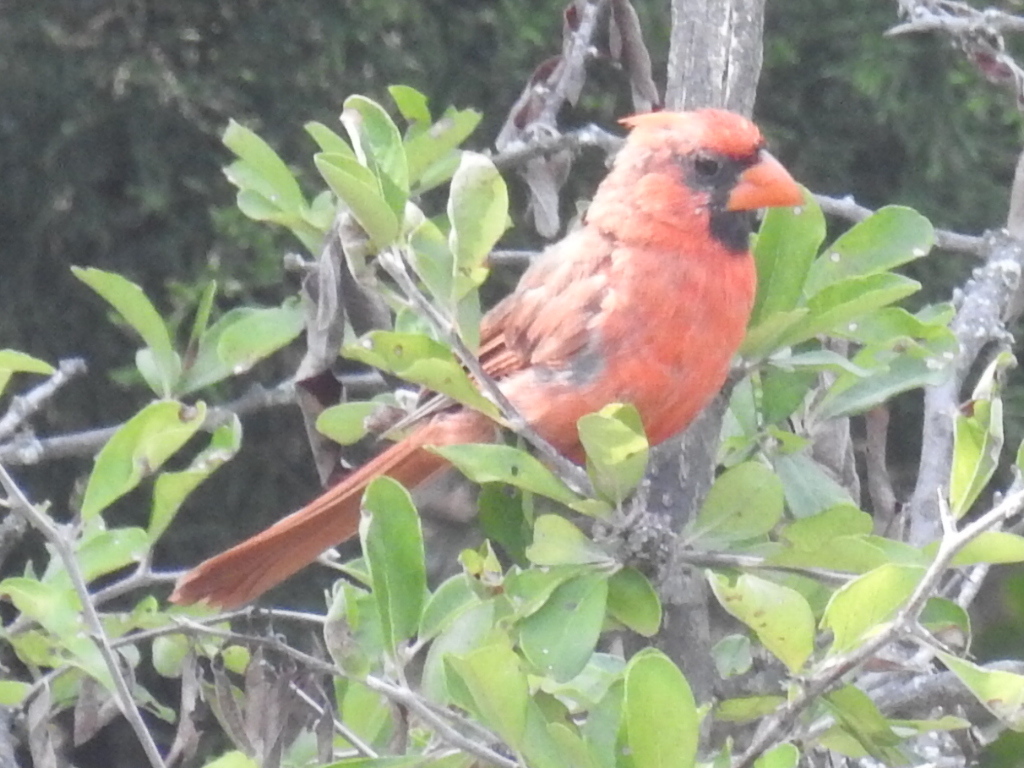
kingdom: Animalia
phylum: Chordata
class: Aves
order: Passeriformes
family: Cardinalidae
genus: Cardinalis
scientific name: Cardinalis cardinalis
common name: Northern cardinal
